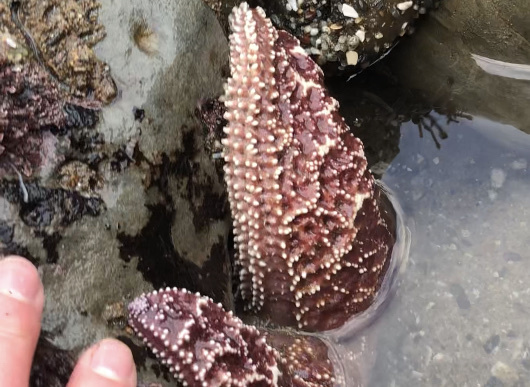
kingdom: Animalia
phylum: Echinodermata
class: Asteroidea
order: Forcipulatida
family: Asteriidae
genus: Pisaster
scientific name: Pisaster ochraceus
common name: Ochre stars
